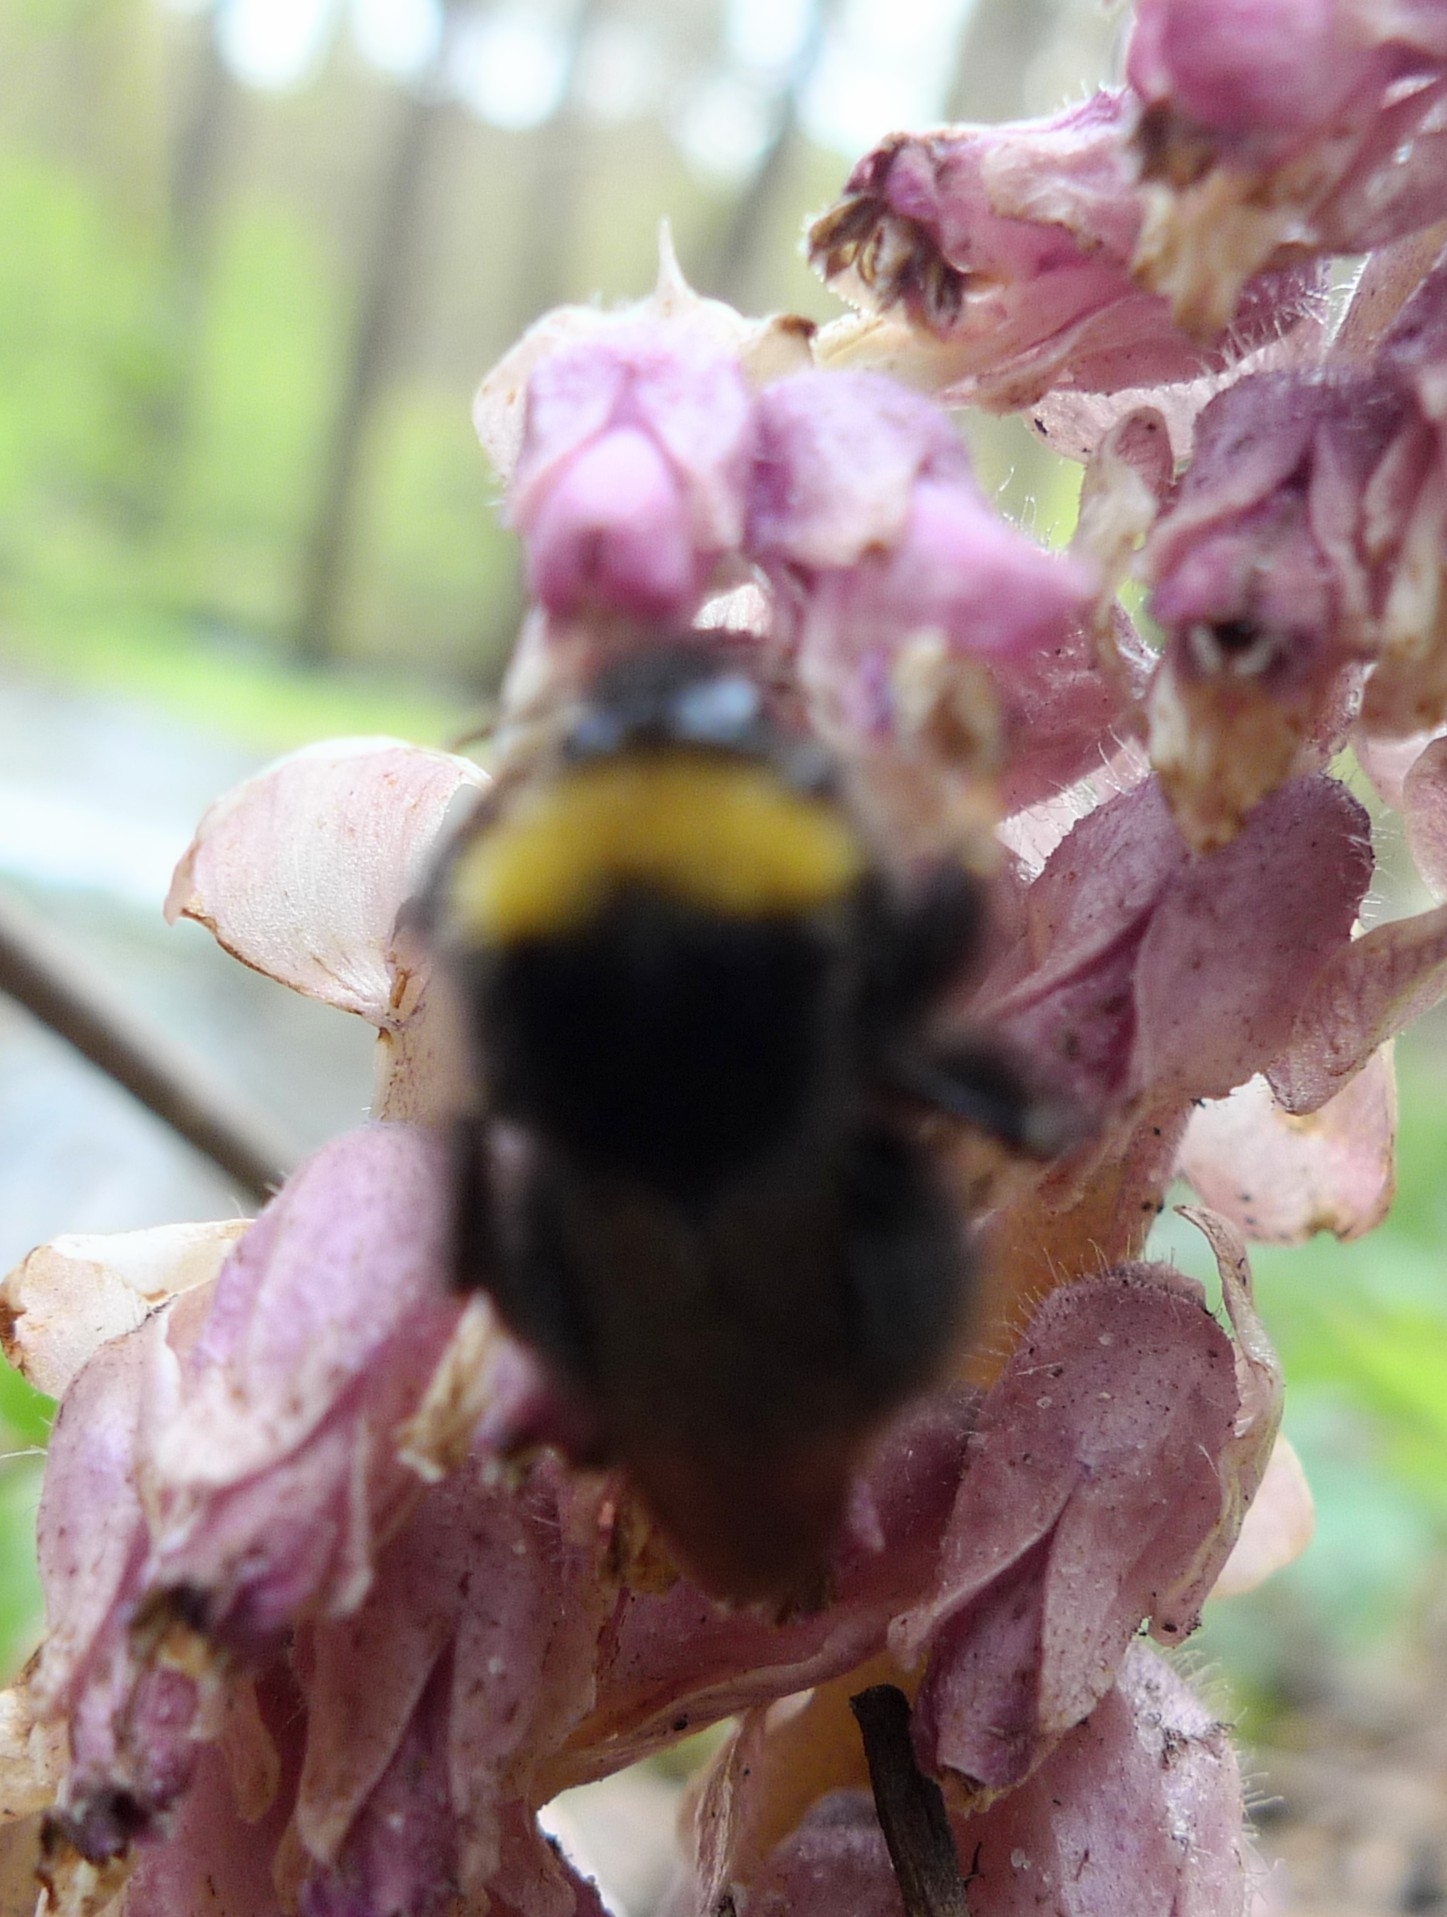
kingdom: Animalia
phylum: Arthropoda
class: Insecta
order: Hymenoptera
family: Apidae
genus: Bombus
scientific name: Bombus pratorum
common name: Early humble-bee
